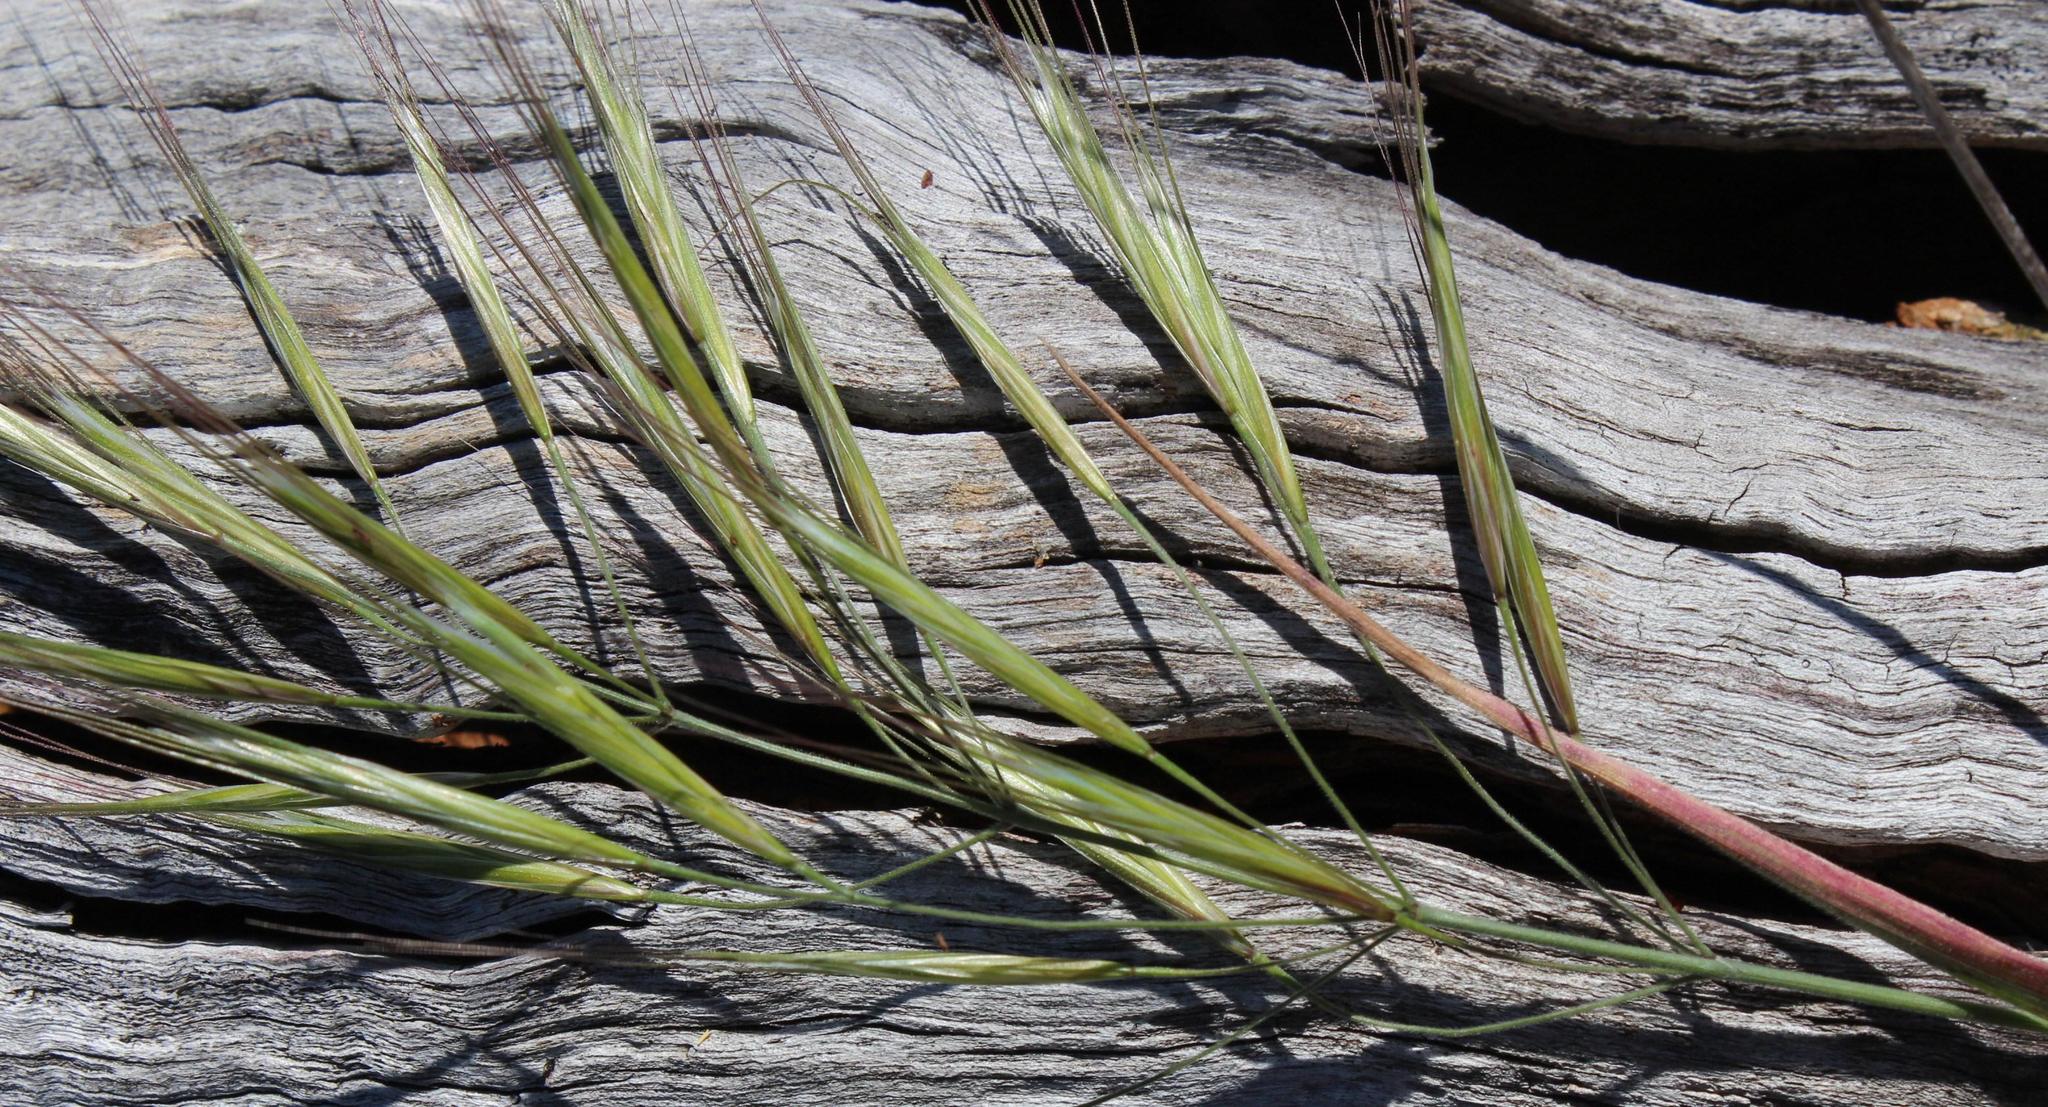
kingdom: Plantae
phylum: Tracheophyta
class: Liliopsida
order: Poales
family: Poaceae
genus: Bromus
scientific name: Bromus diandrus
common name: Ripgut brome
